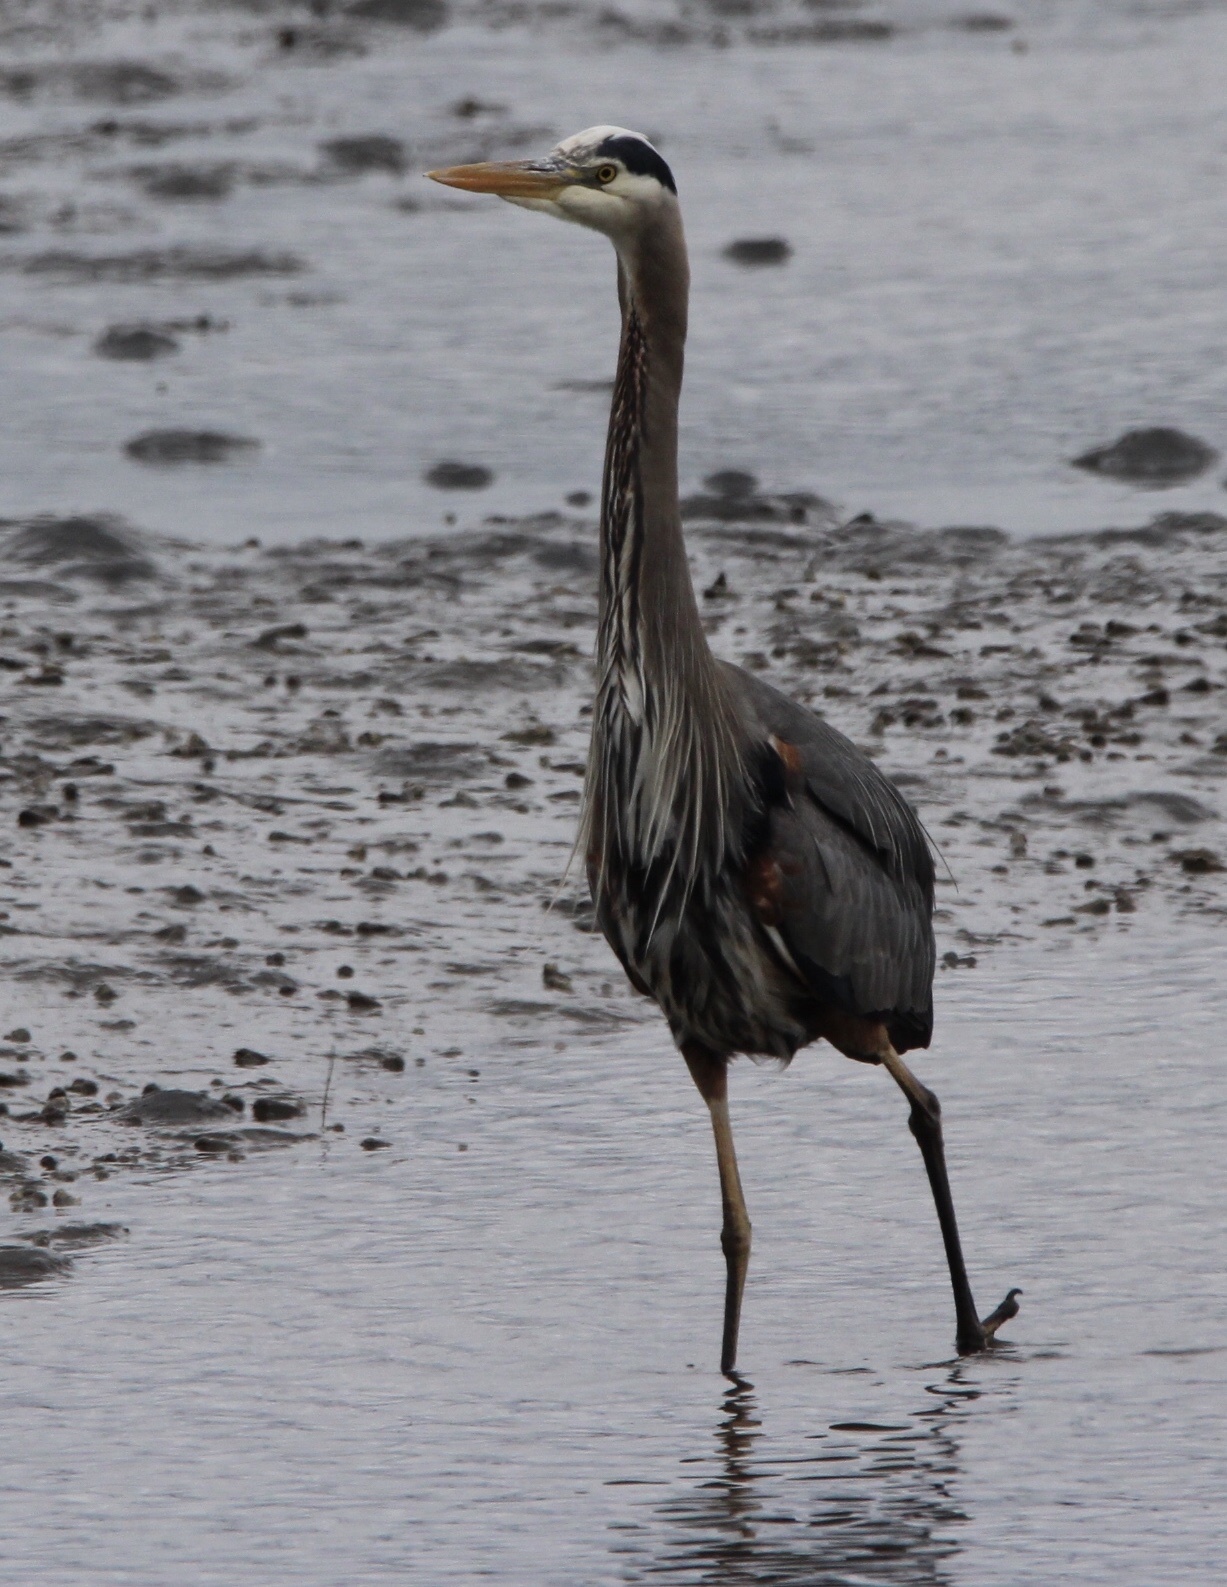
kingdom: Animalia
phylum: Chordata
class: Aves
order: Pelecaniformes
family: Ardeidae
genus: Ardea
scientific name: Ardea herodias
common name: Great blue heron
